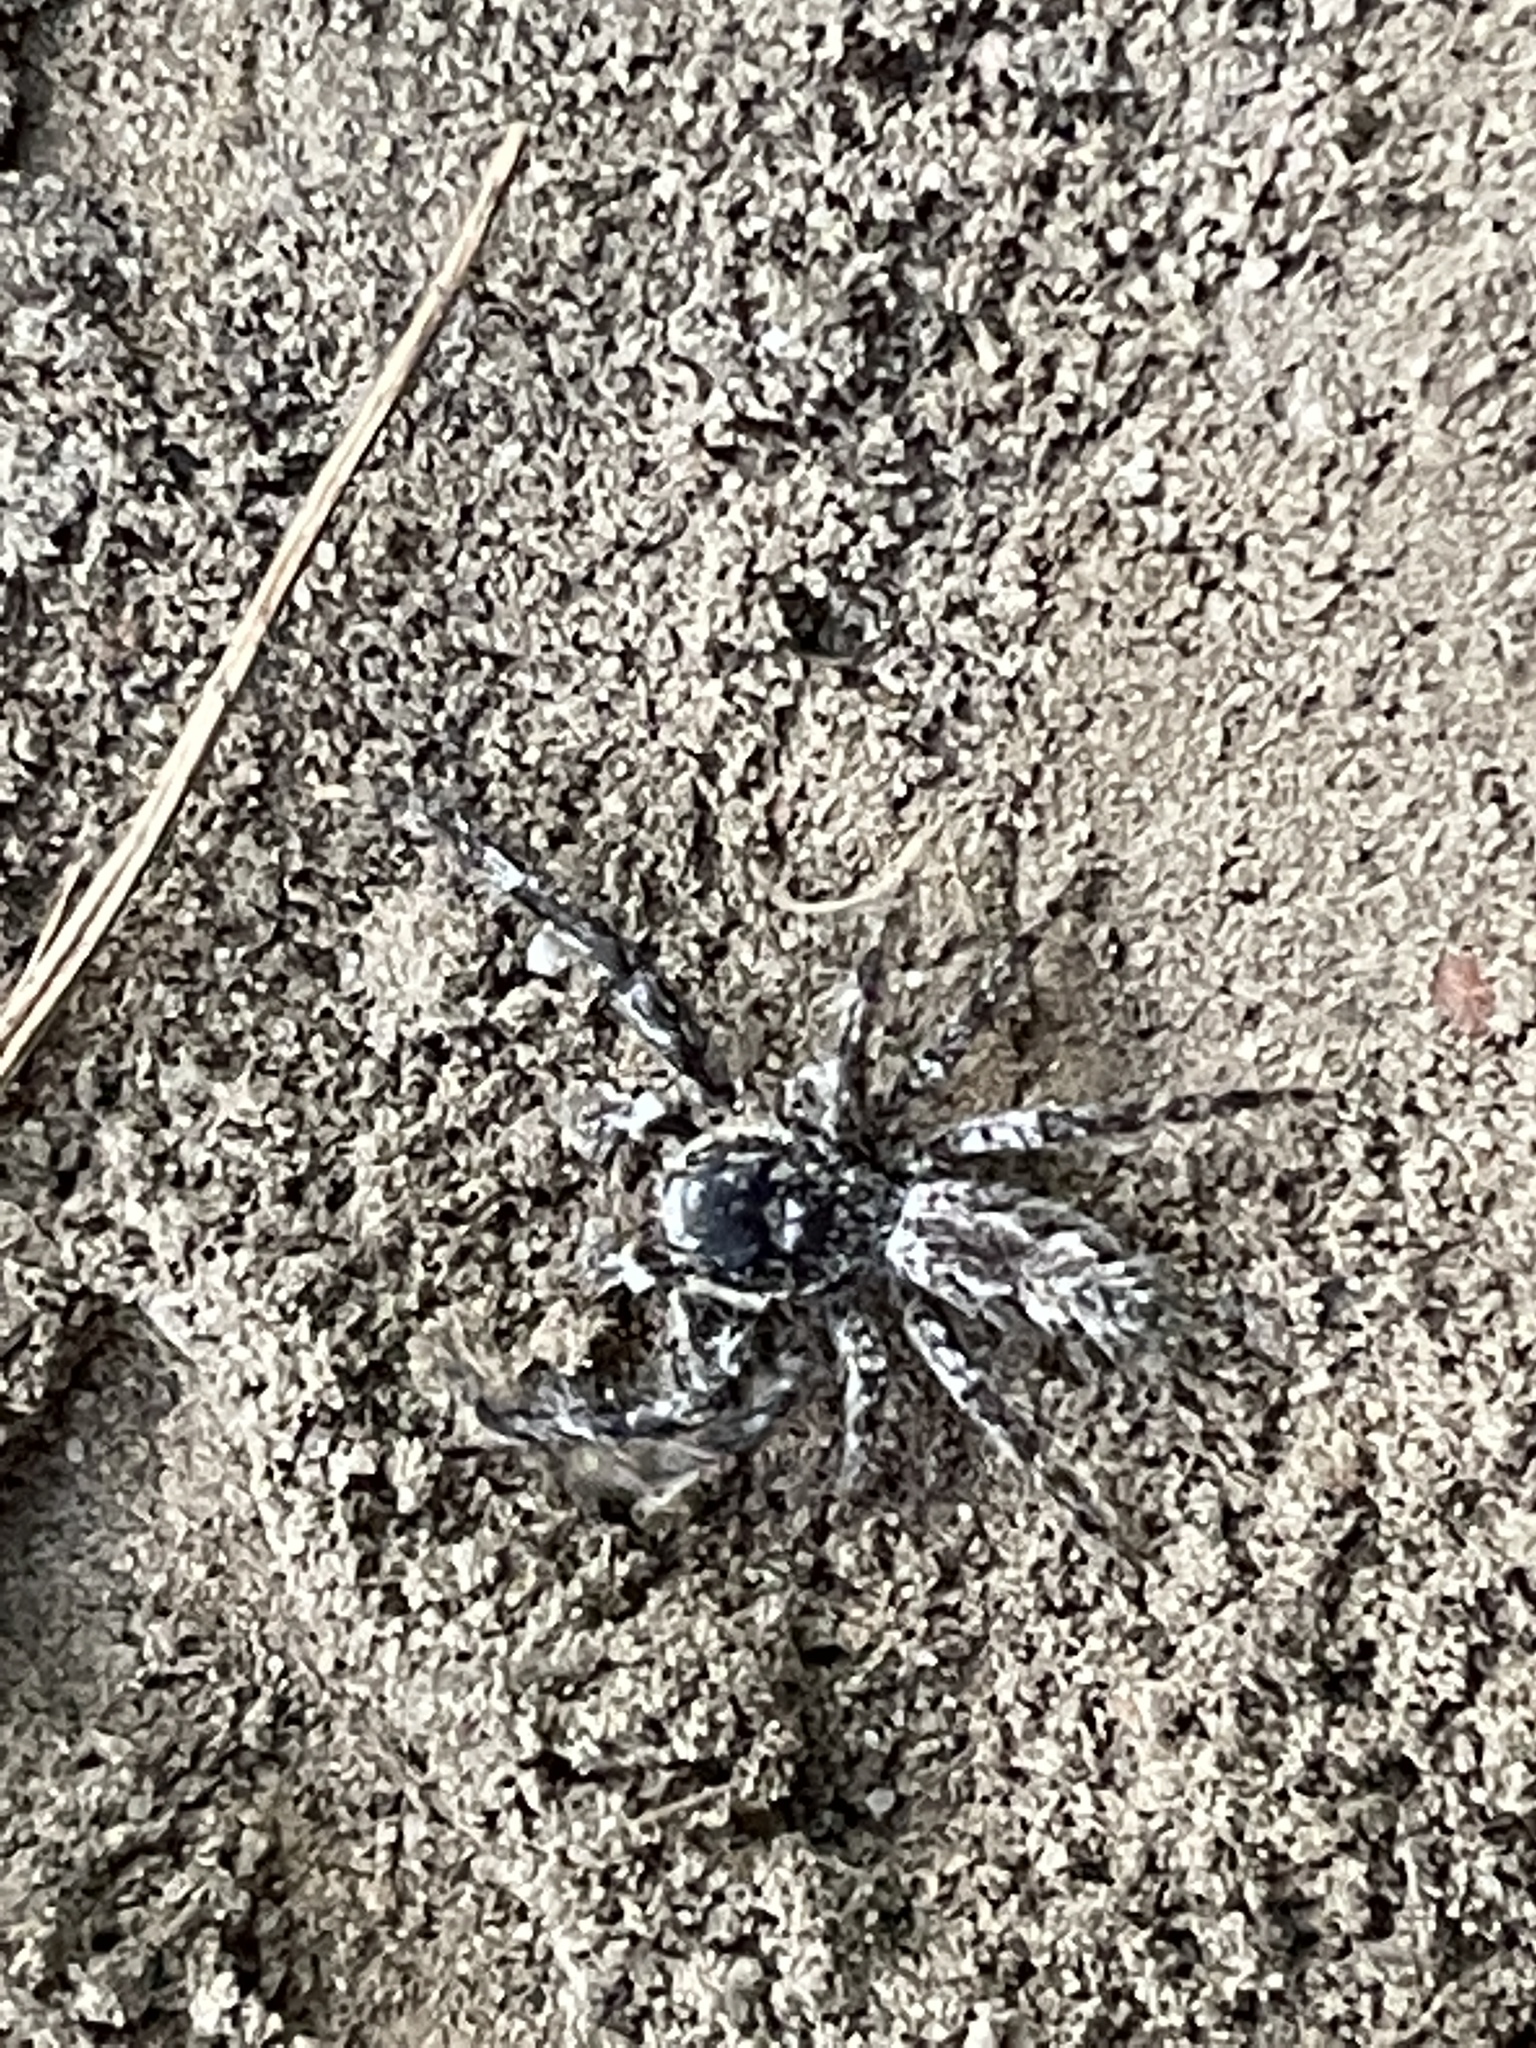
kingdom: Animalia
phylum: Arthropoda
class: Arachnida
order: Araneae
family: Salticidae
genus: Platycryptus
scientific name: Platycryptus undatus
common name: Tan jumping spider
